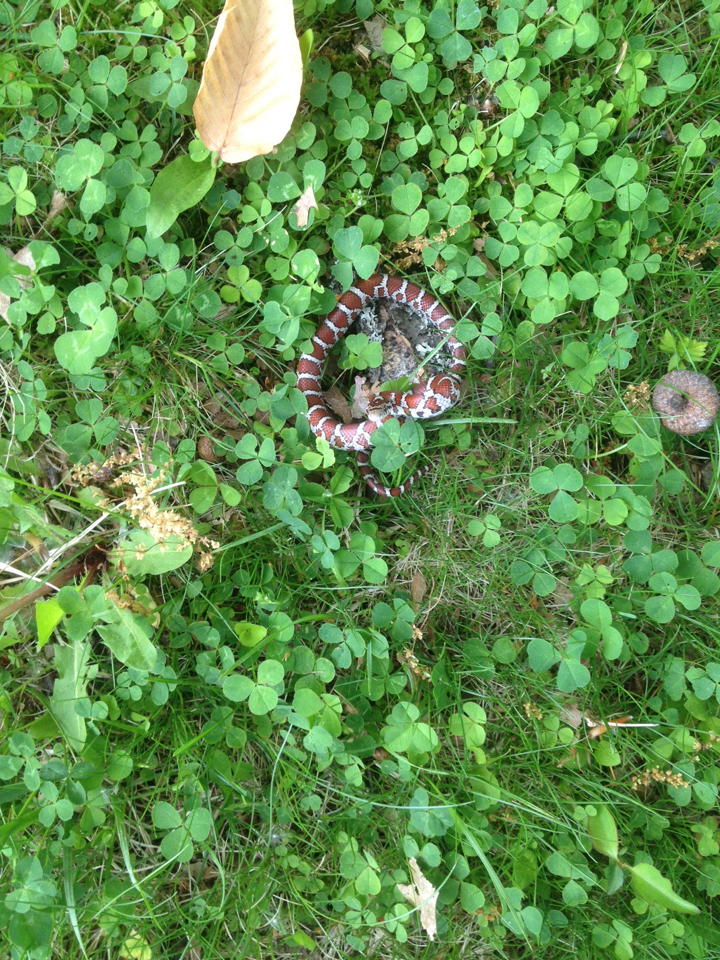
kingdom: Animalia
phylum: Chordata
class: Squamata
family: Colubridae
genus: Lampropeltis
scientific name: Lampropeltis triangulum
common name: Eastern milksnake
